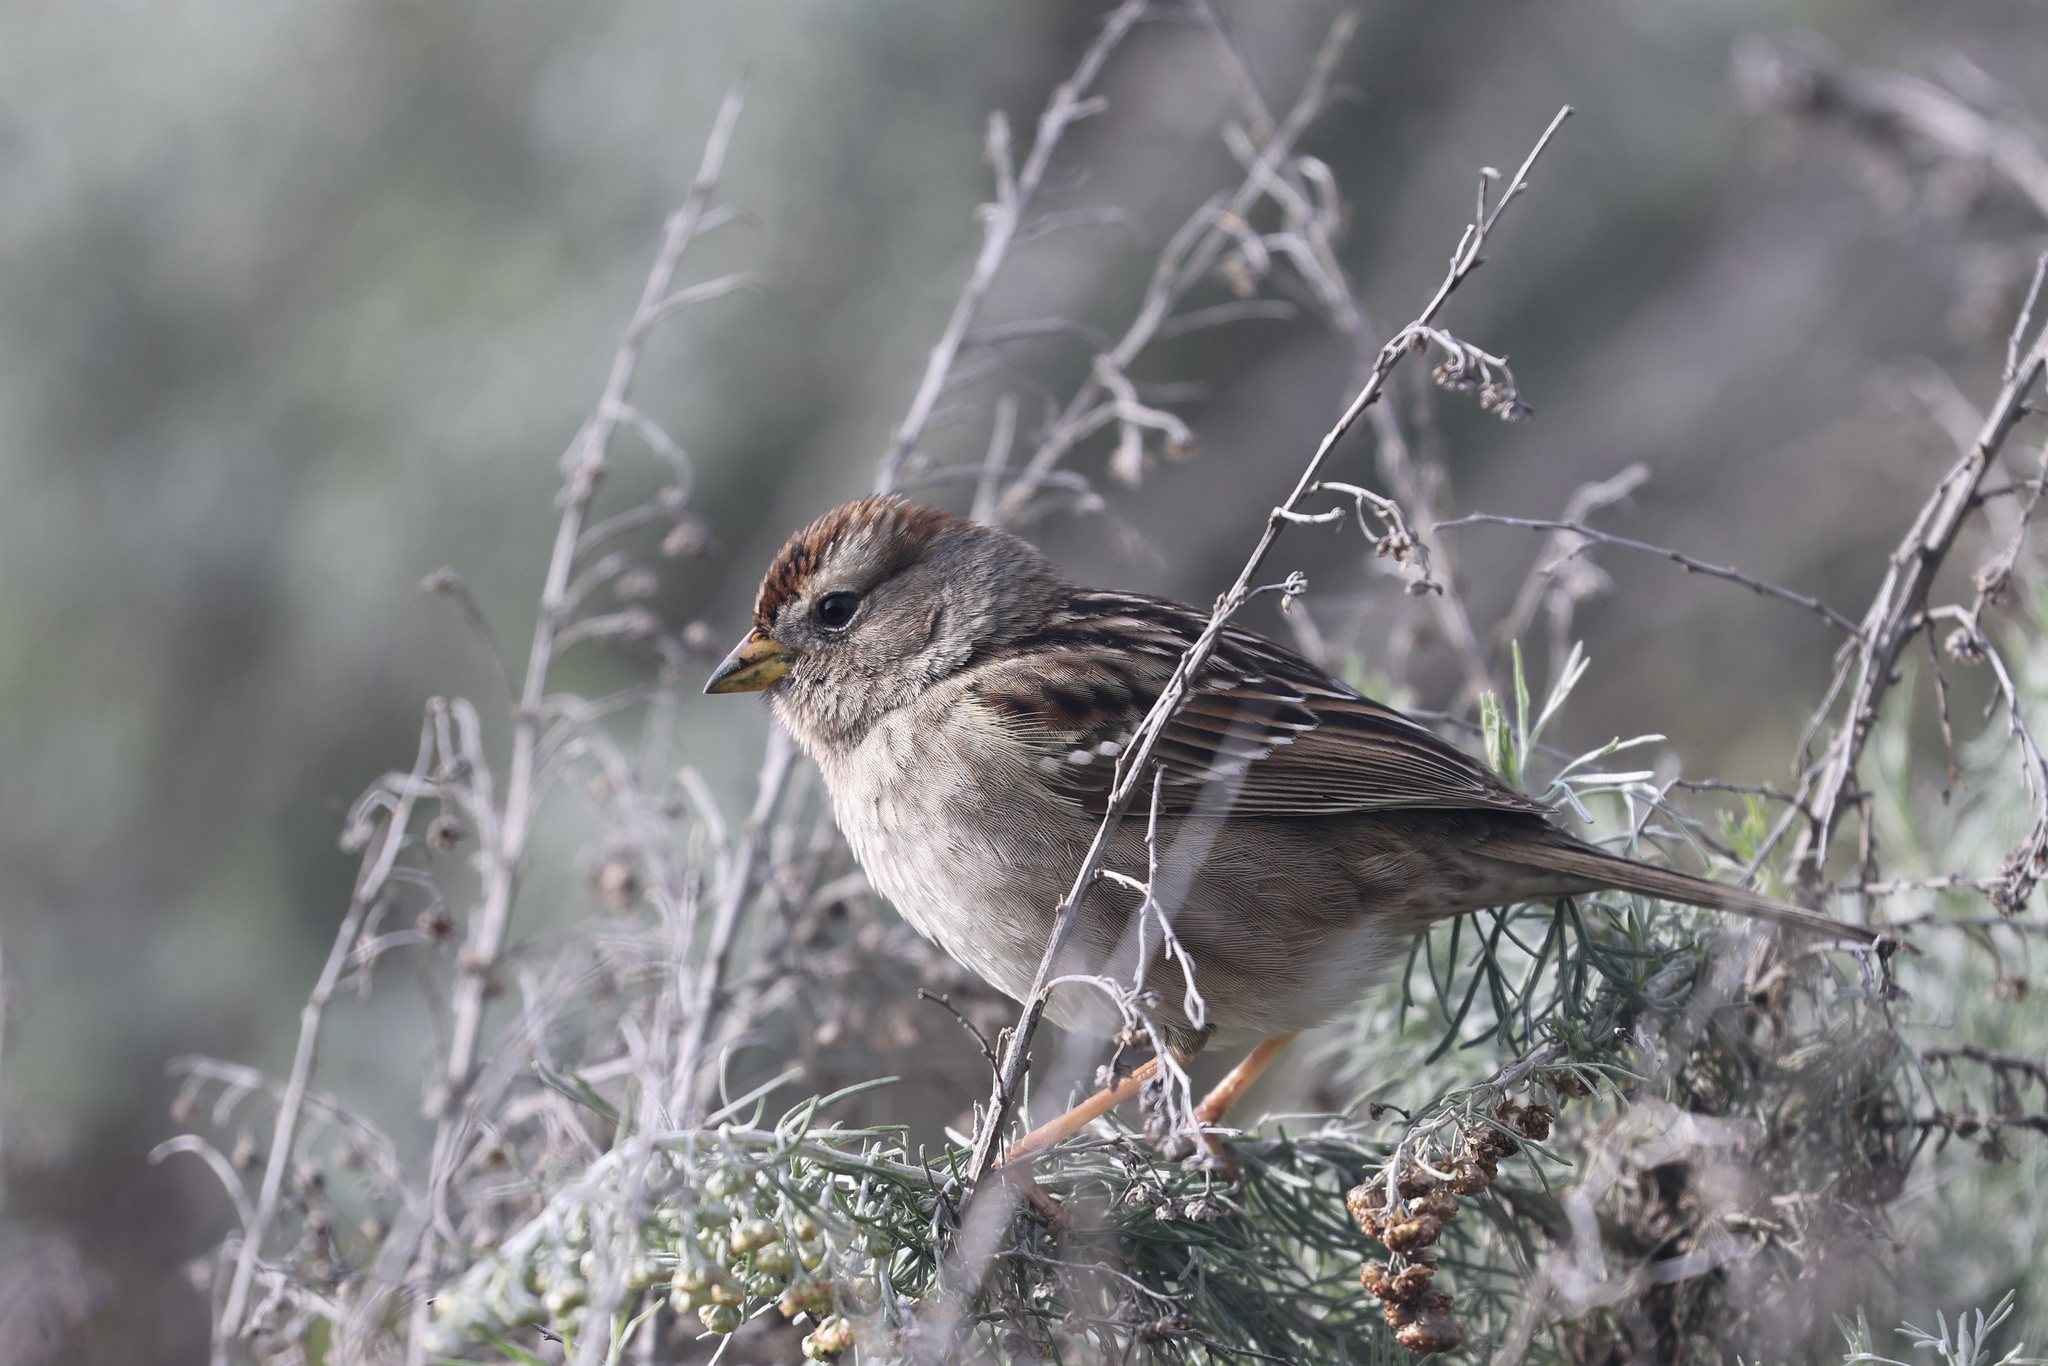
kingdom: Animalia
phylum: Chordata
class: Aves
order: Passeriformes
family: Passerellidae
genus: Zonotrichia
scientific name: Zonotrichia leucophrys
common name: White-crowned sparrow
